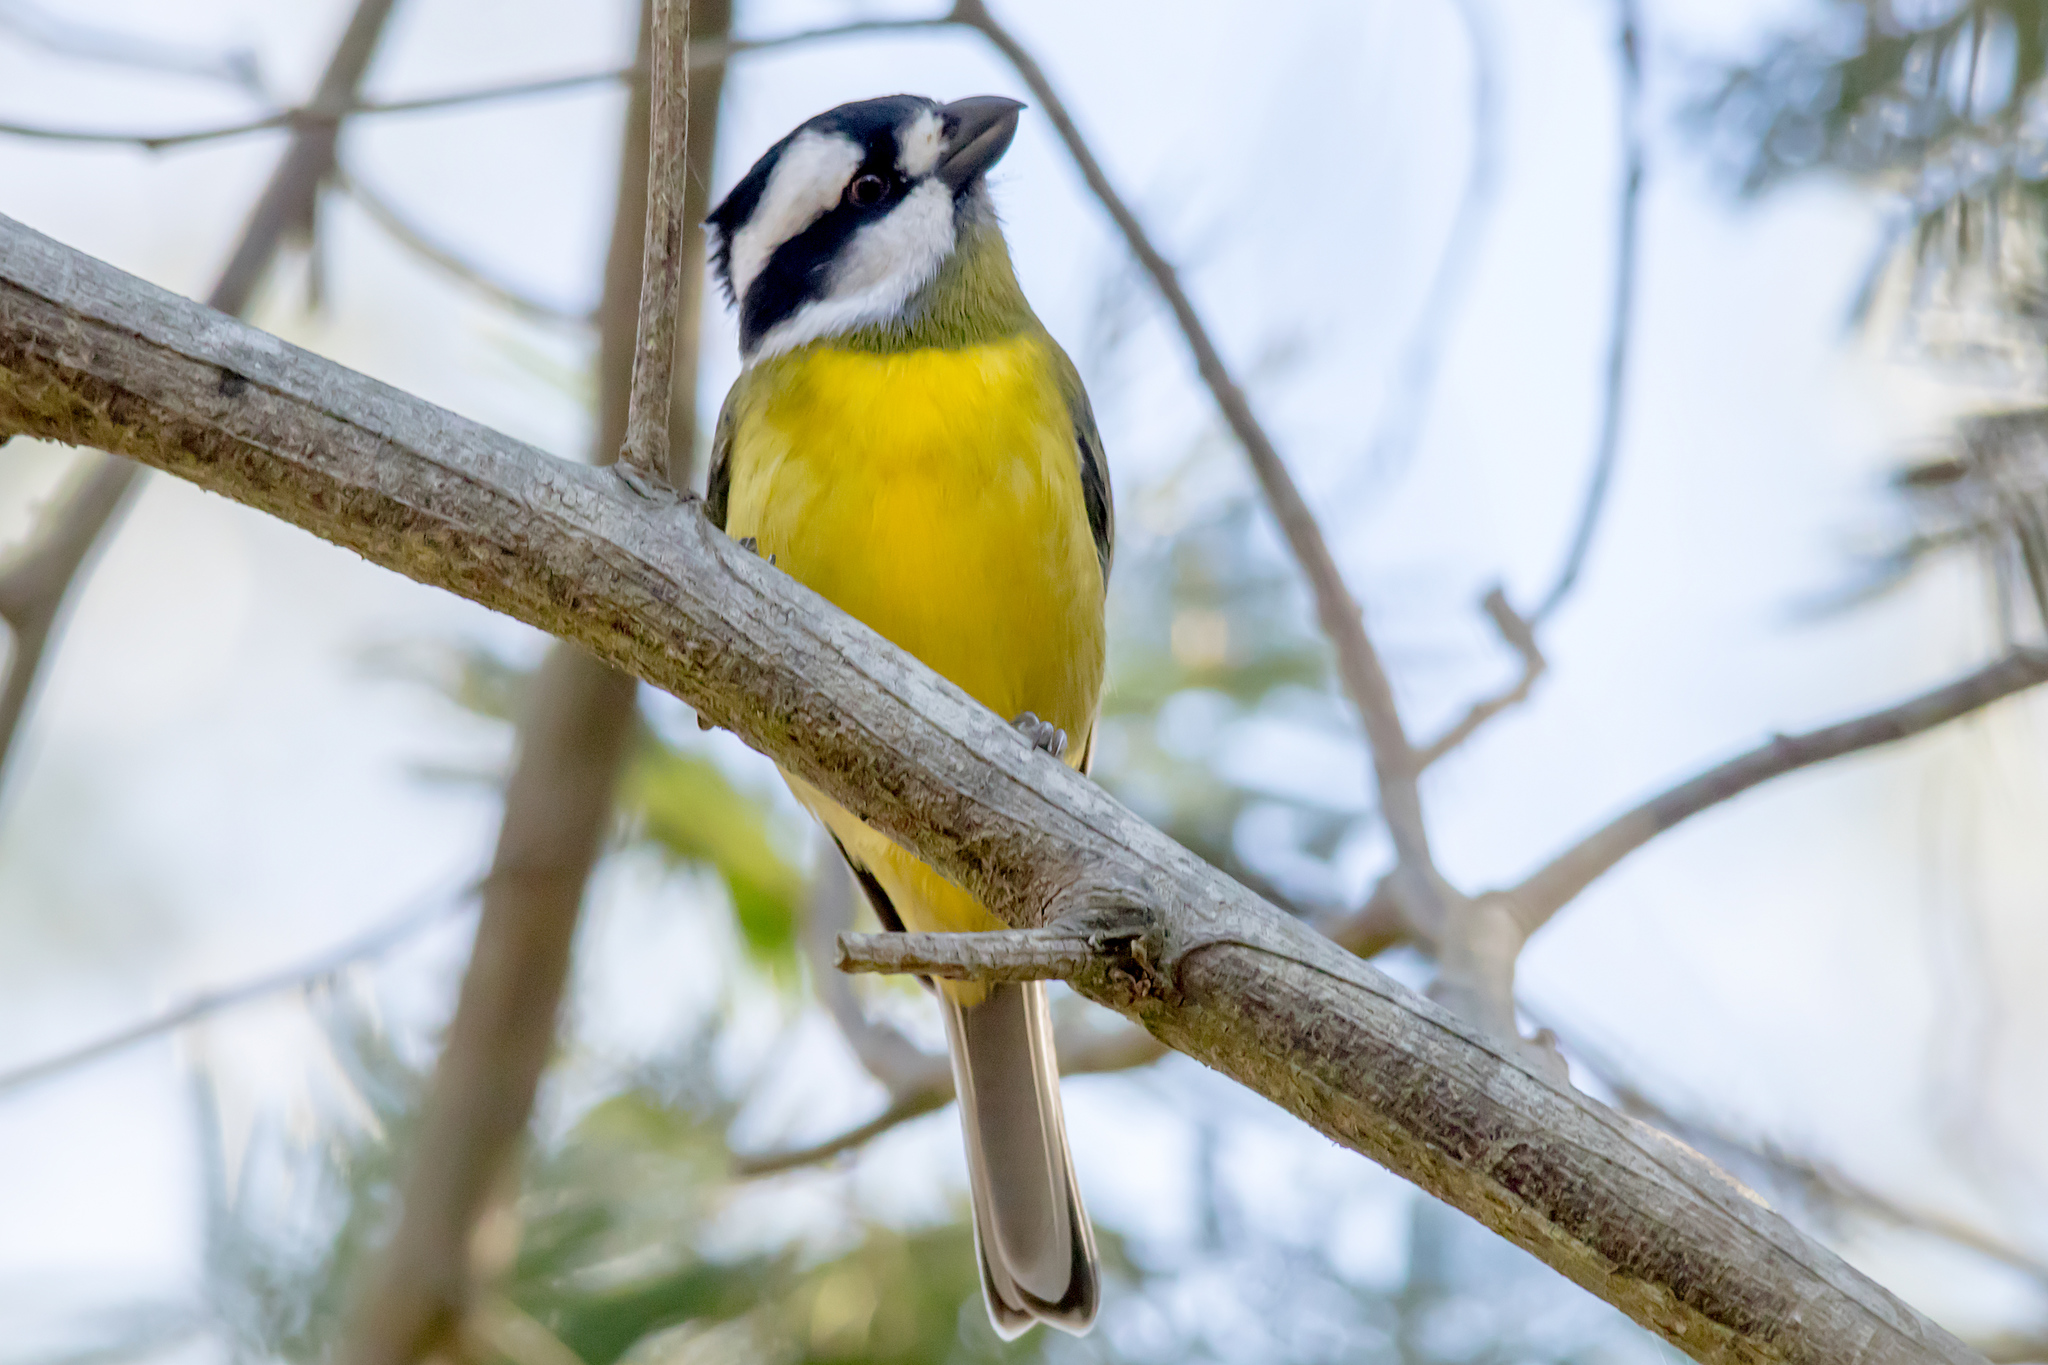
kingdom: Animalia
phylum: Chordata
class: Aves
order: Passeriformes
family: Pachycephalidae
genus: Falcunculus
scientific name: Falcunculus frontatus
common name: Crested shriketit
